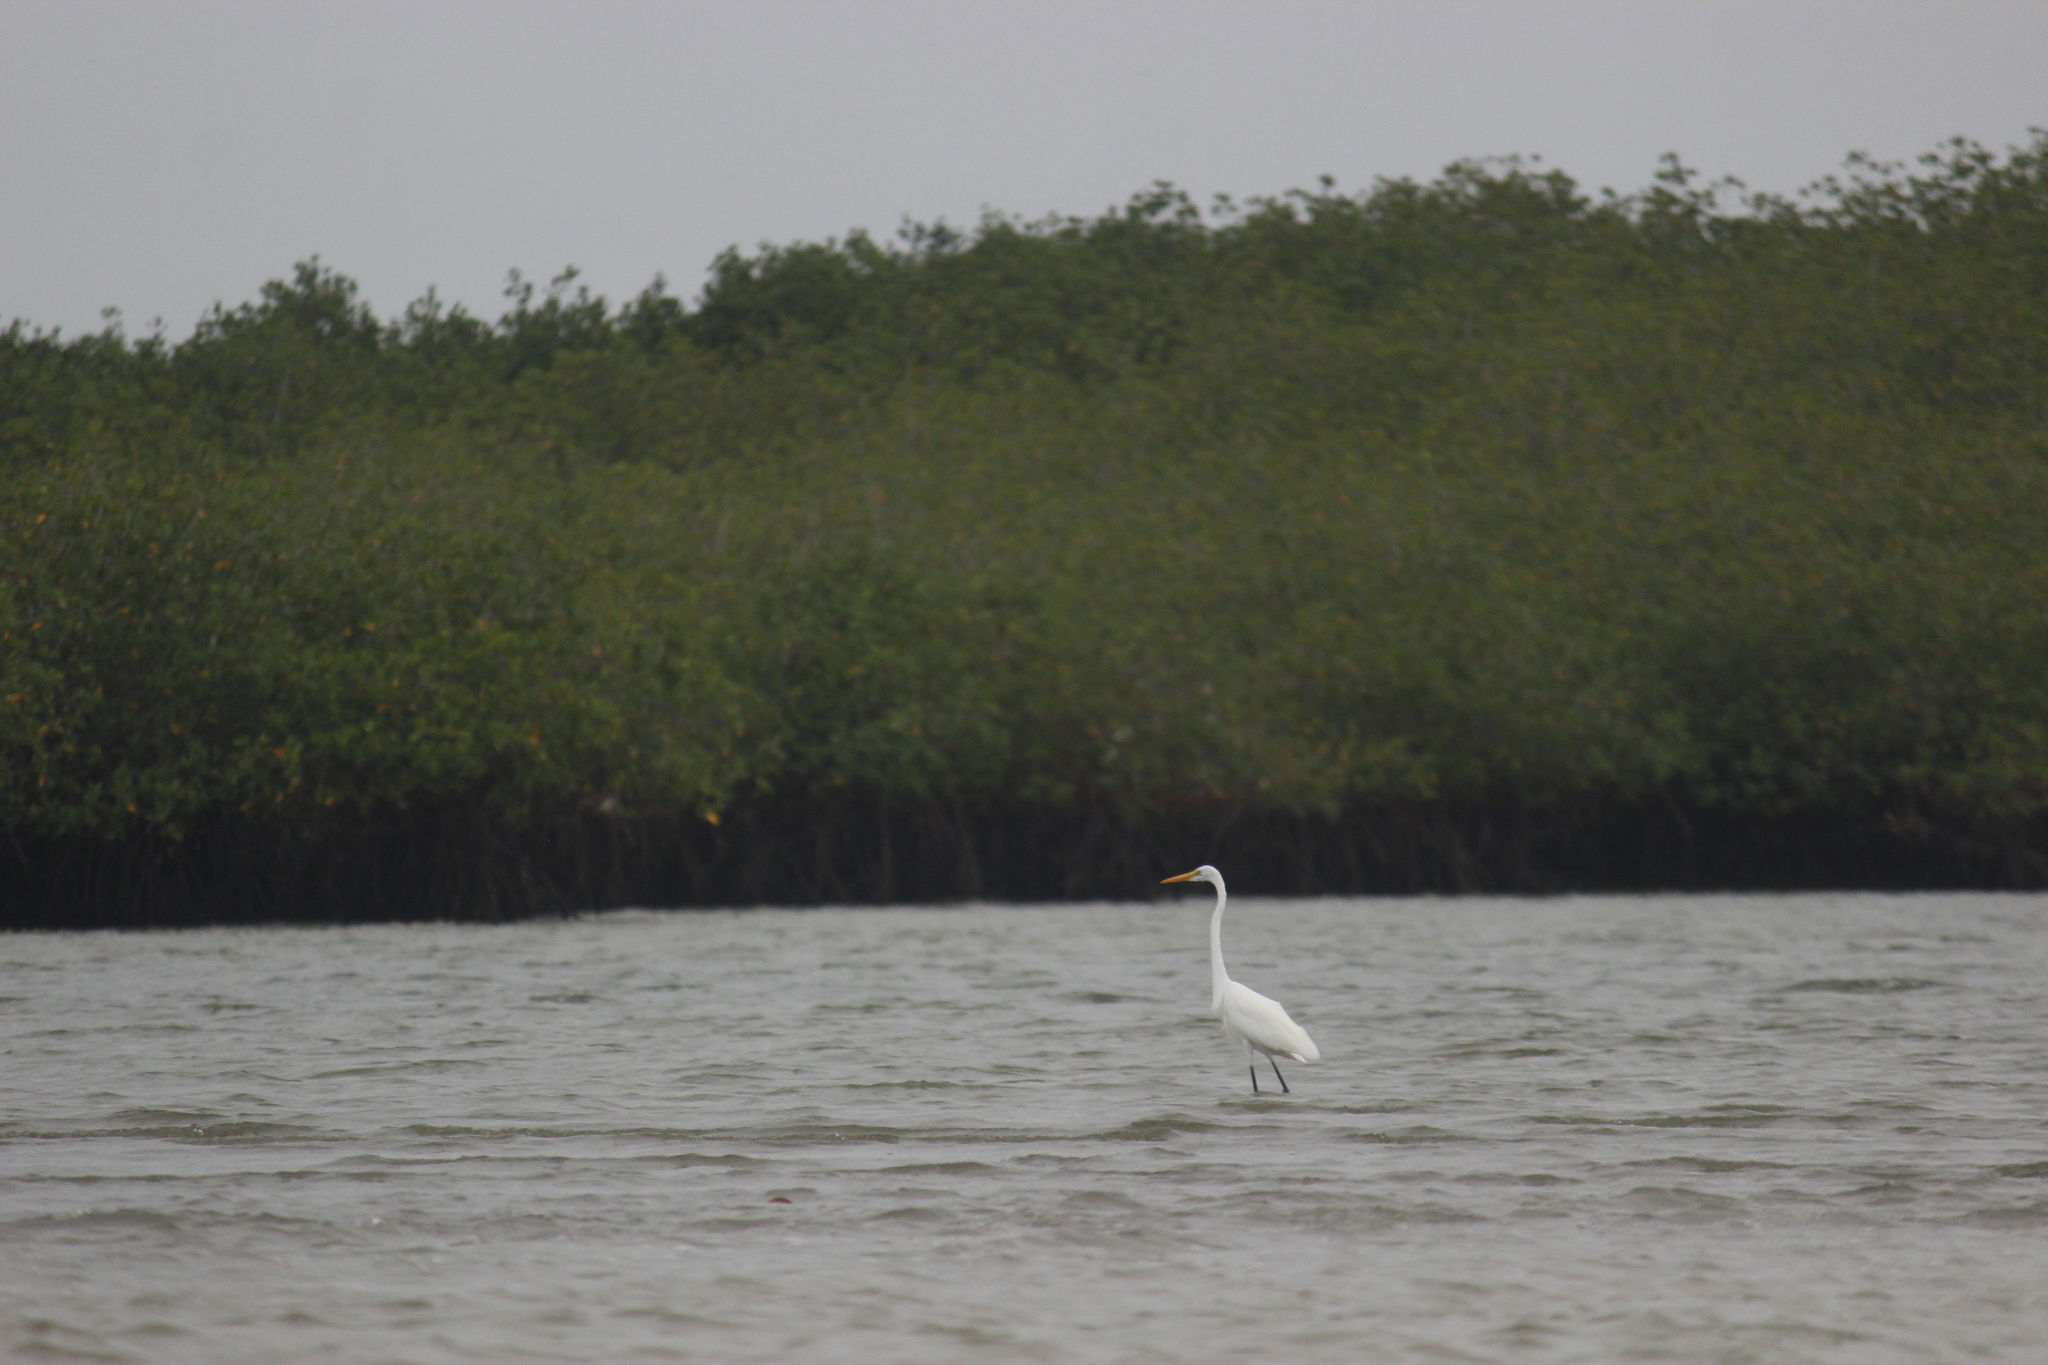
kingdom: Animalia
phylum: Chordata
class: Aves
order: Pelecaniformes
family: Ardeidae
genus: Ardea
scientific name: Ardea alba
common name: Great egret
